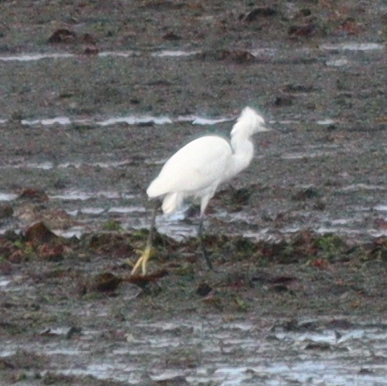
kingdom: Animalia
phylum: Chordata
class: Aves
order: Pelecaniformes
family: Ardeidae
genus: Egretta
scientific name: Egretta garzetta
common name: Little egret
